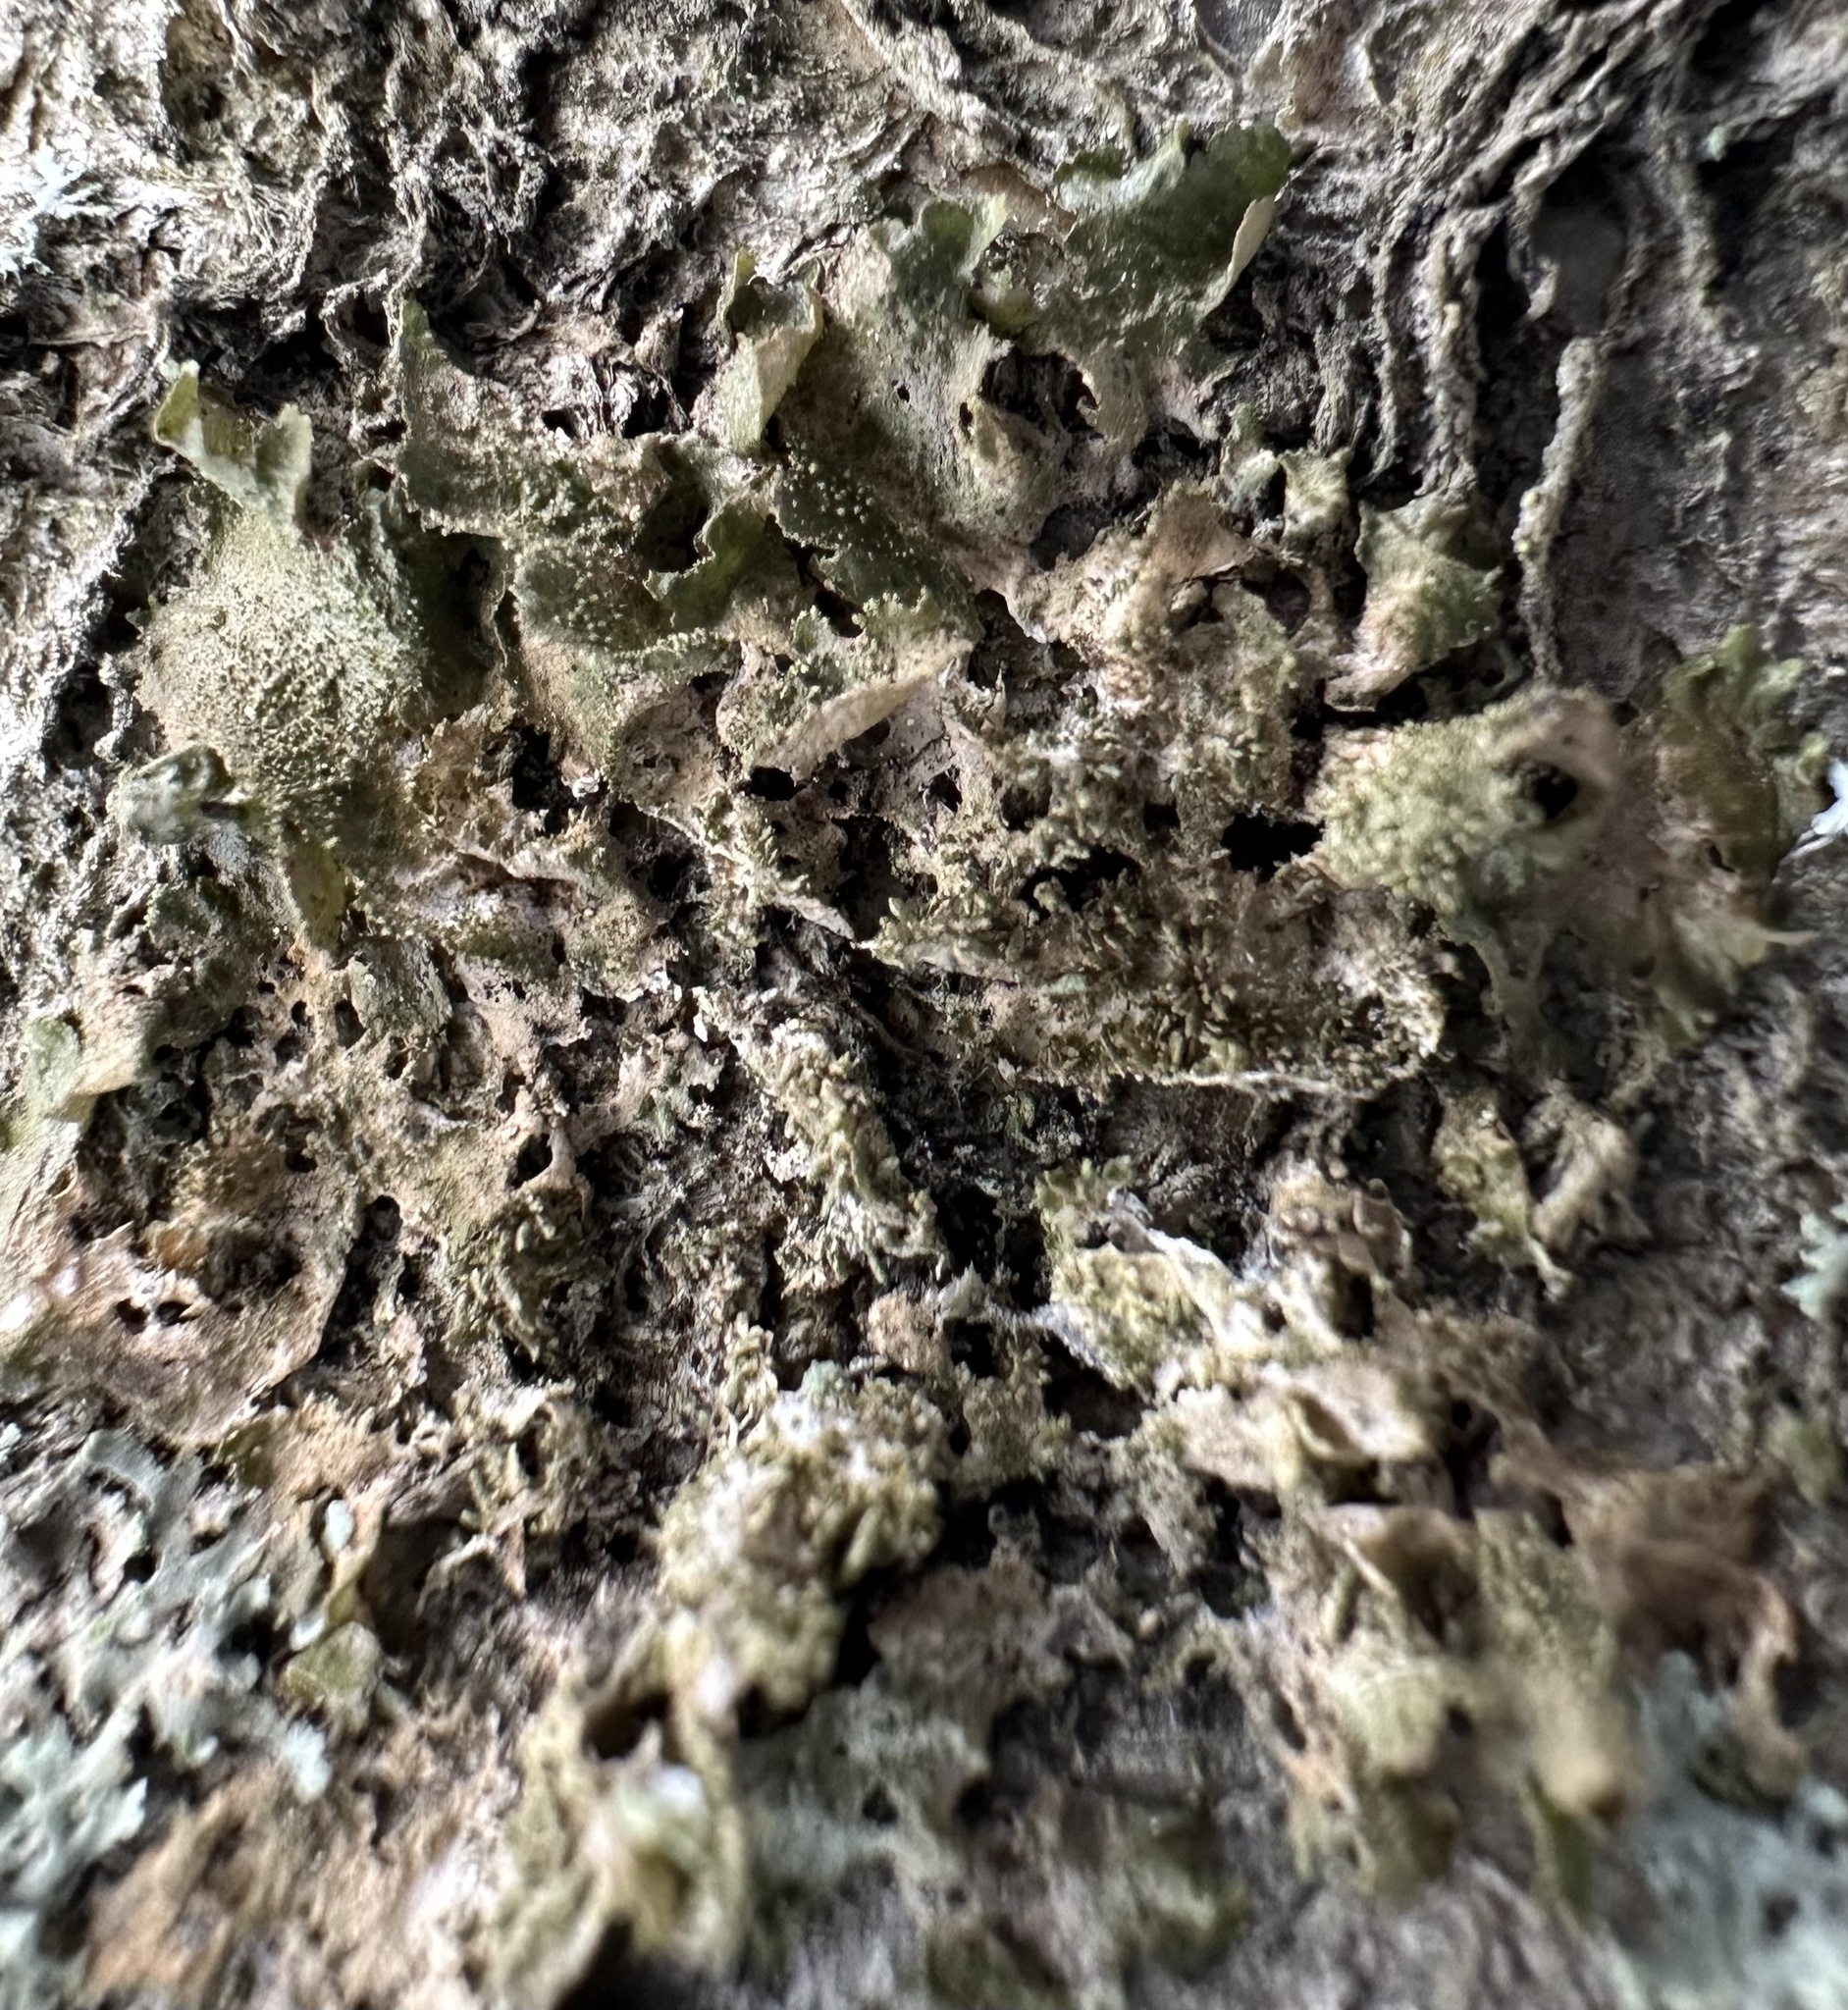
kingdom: Fungi
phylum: Ascomycota
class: Lecanoromycetes
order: Lecanorales
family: Parmeliaceae
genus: Melanohalea
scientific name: Melanohalea exasperatula
